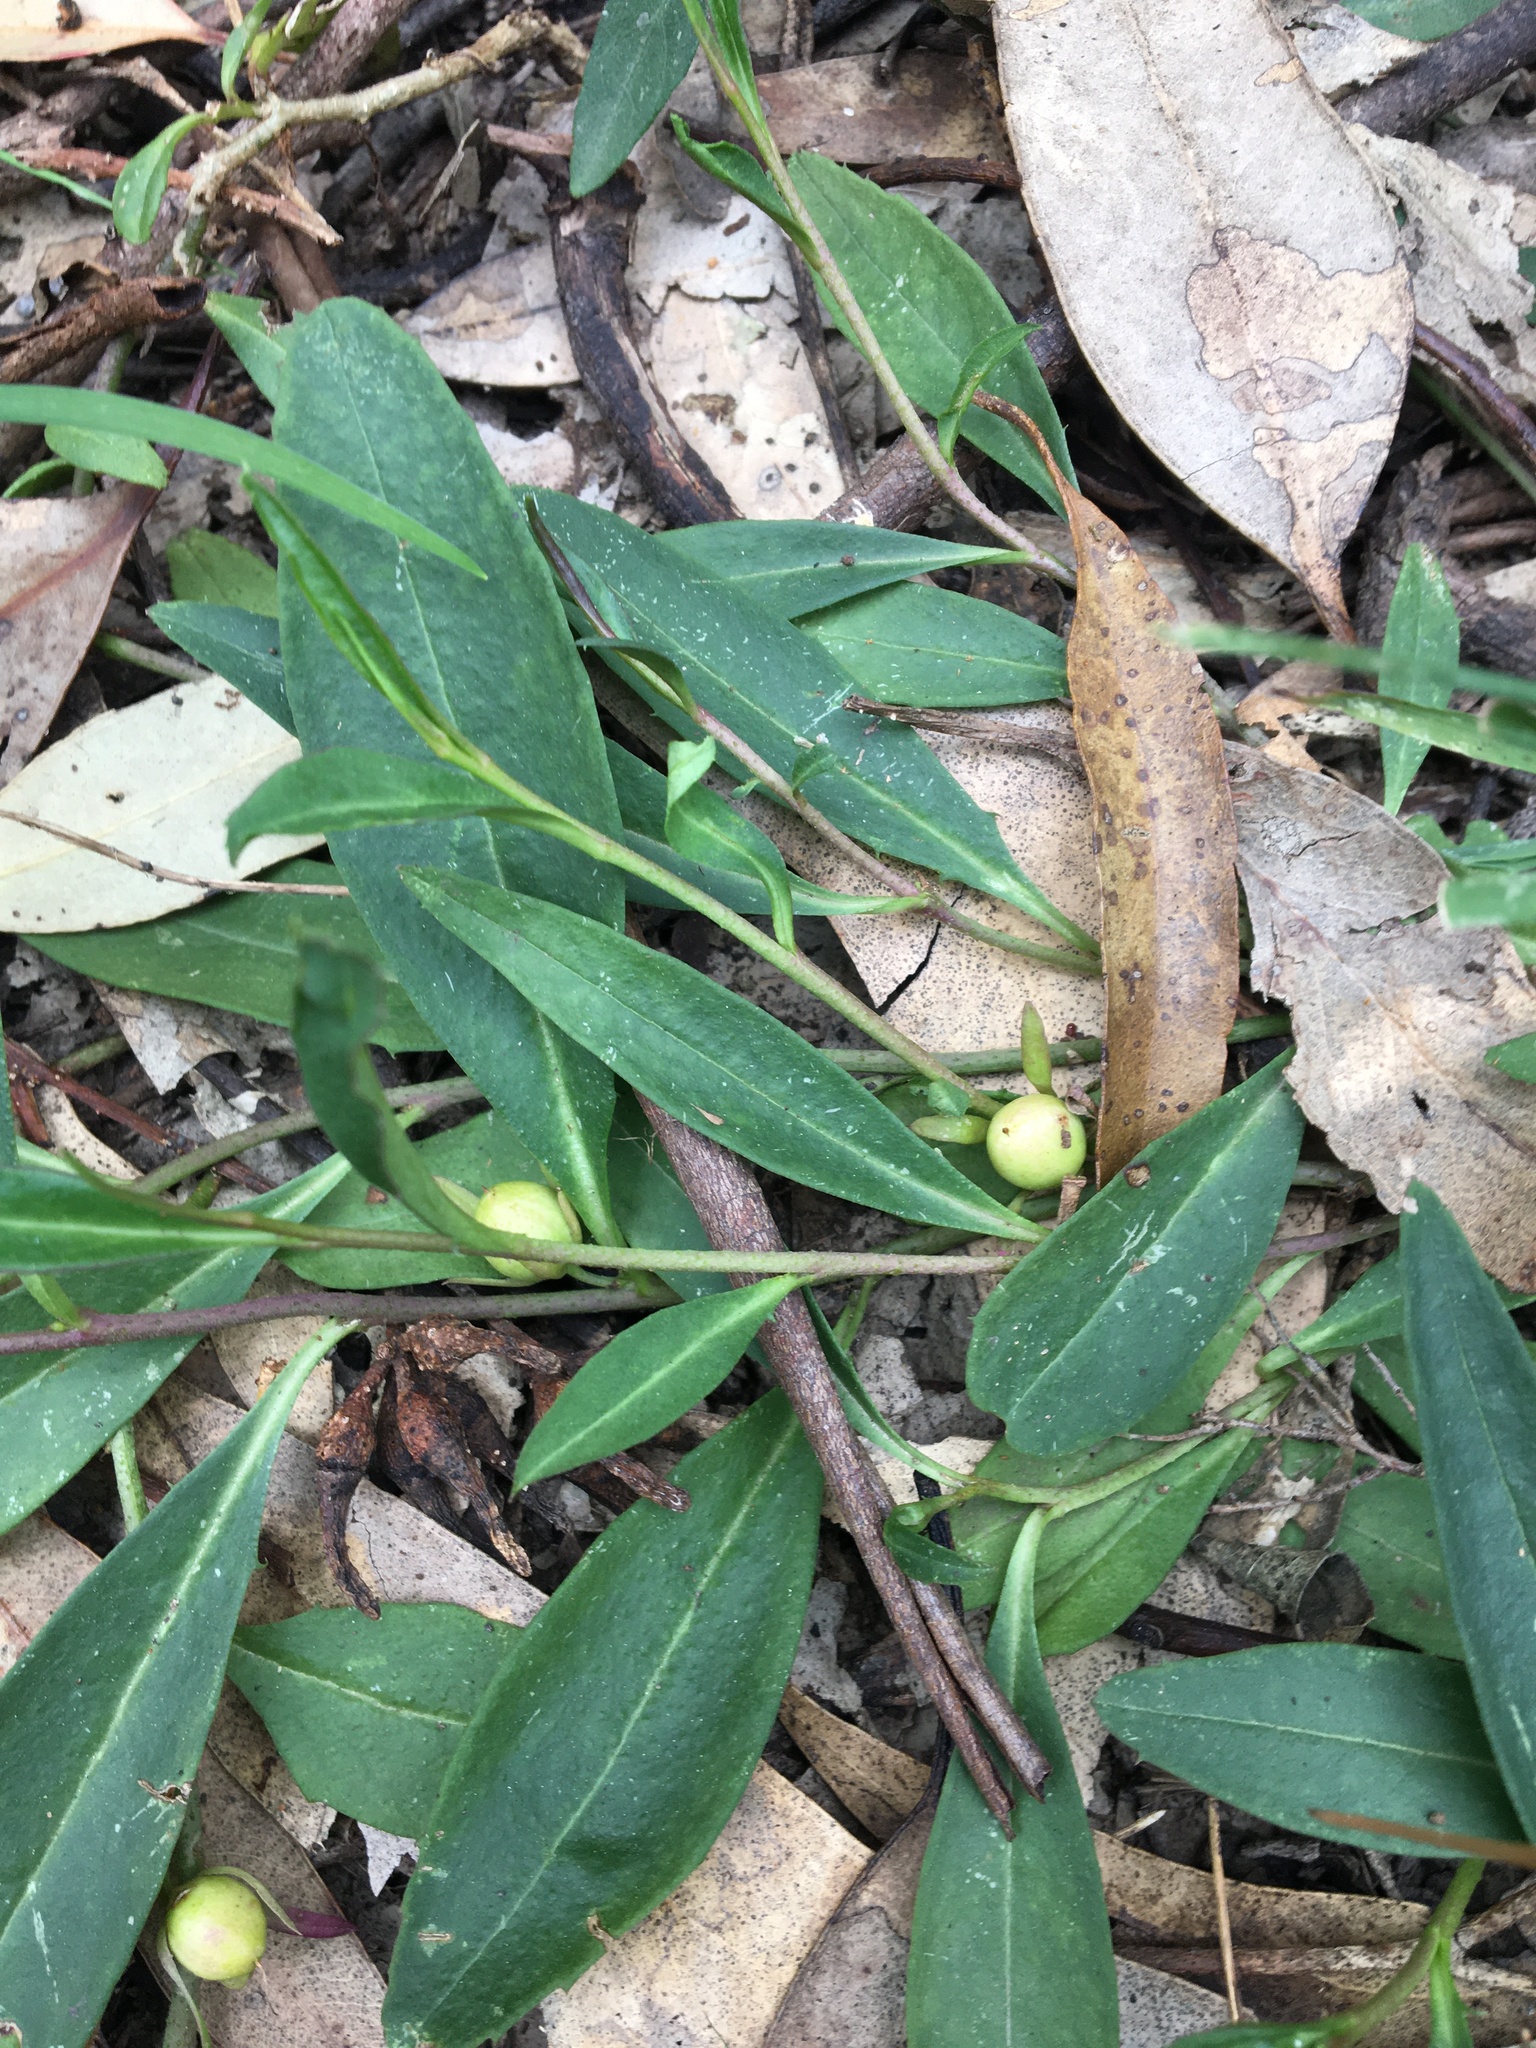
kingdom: Plantae
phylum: Tracheophyta
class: Magnoliopsida
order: Lamiales
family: Scrophulariaceae
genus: Eremophila
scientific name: Eremophila debilis
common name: Winter-apple
